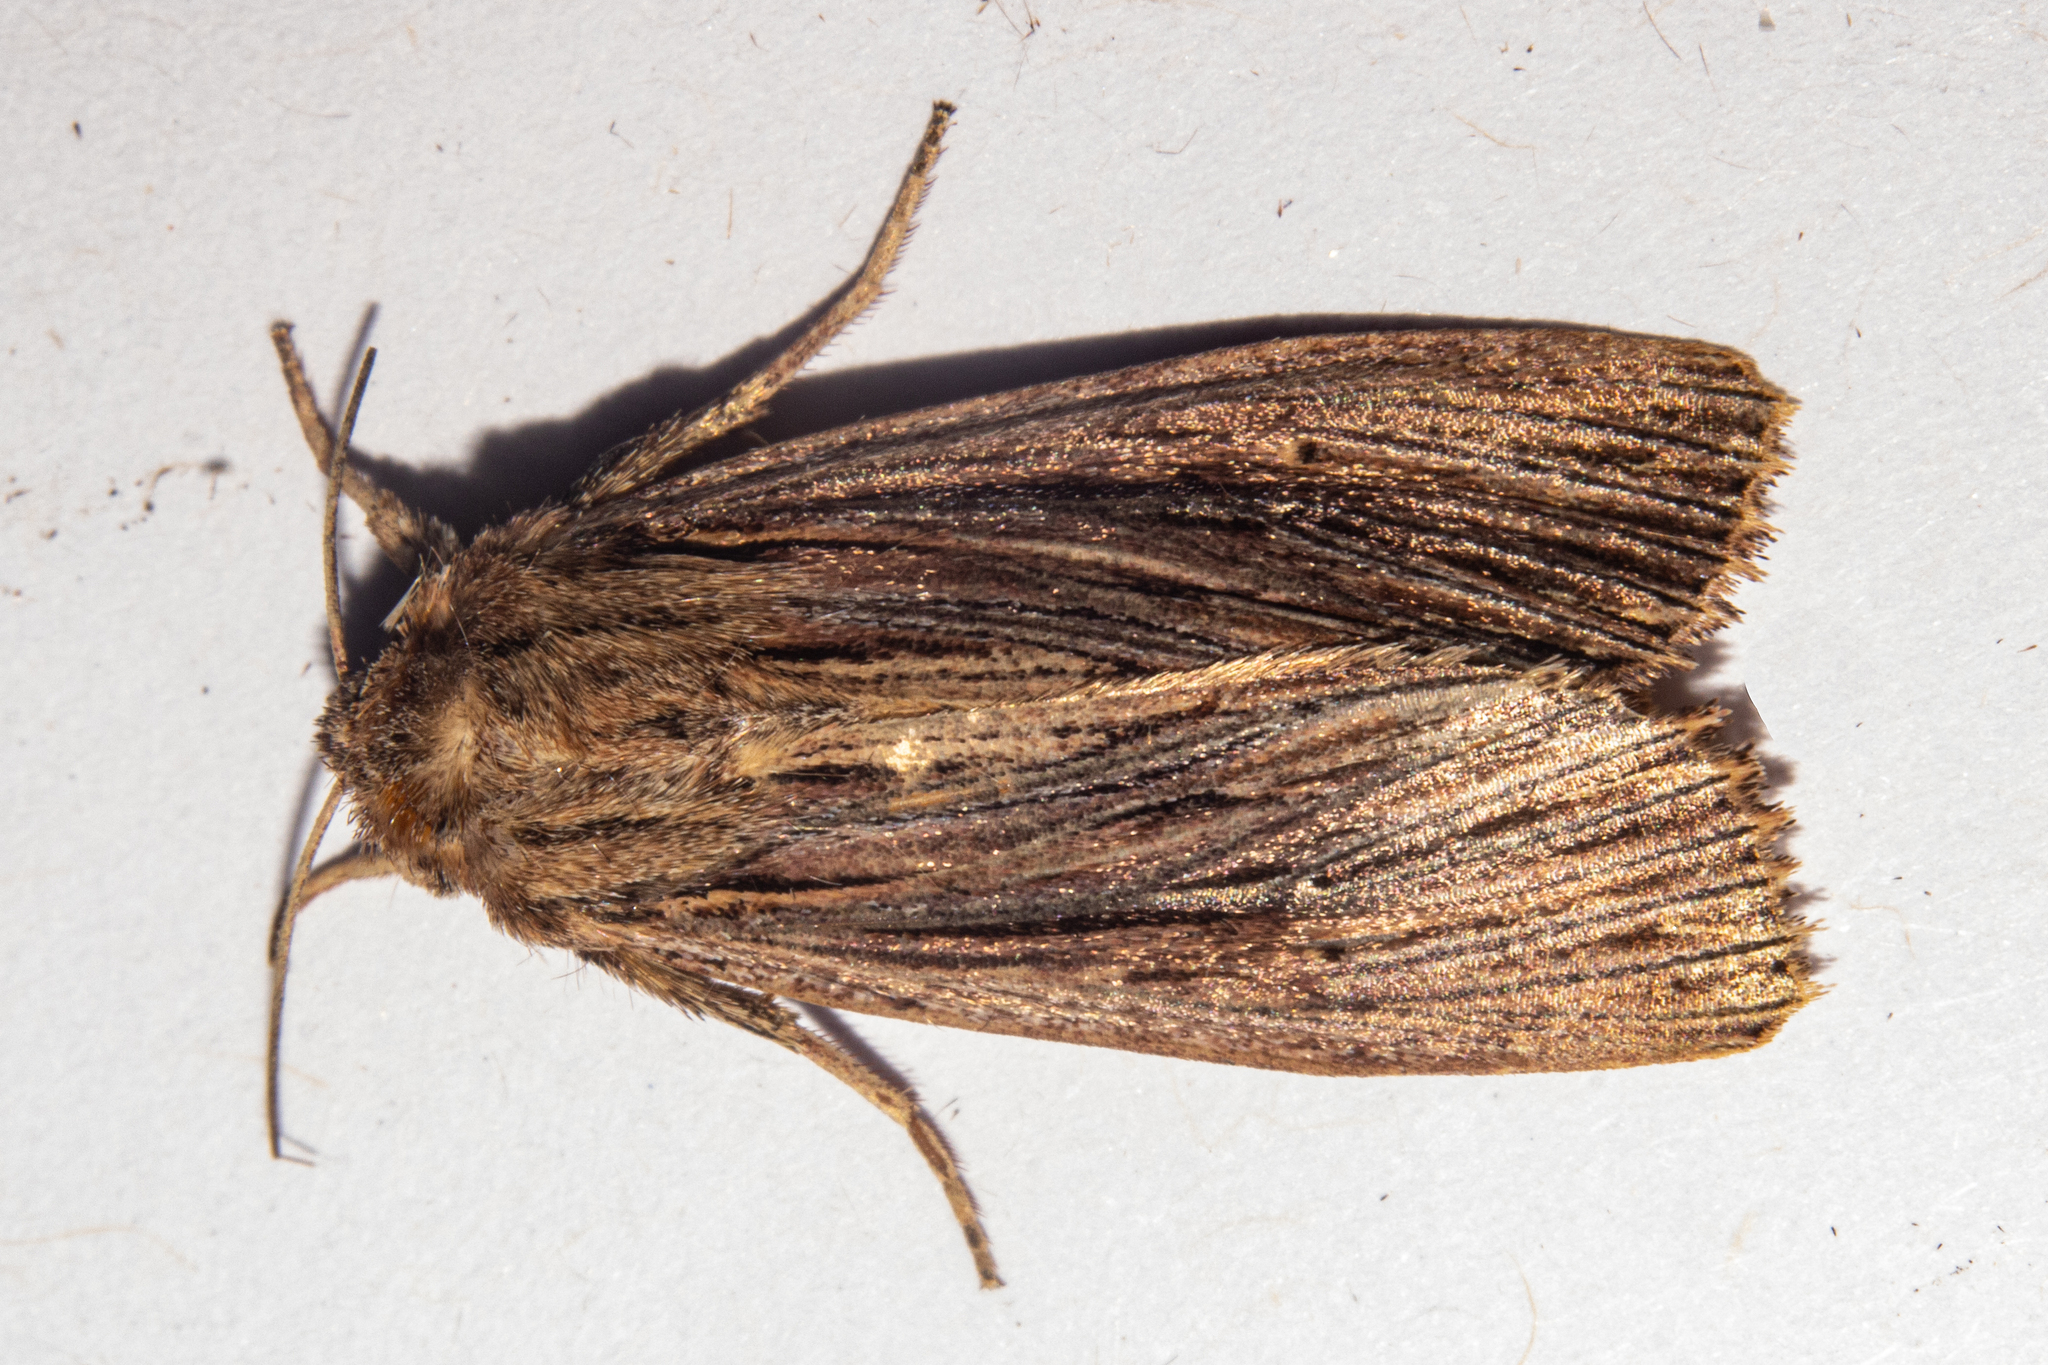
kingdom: Animalia
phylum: Arthropoda
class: Insecta
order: Lepidoptera
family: Noctuidae
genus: Ichneutica
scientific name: Ichneutica
